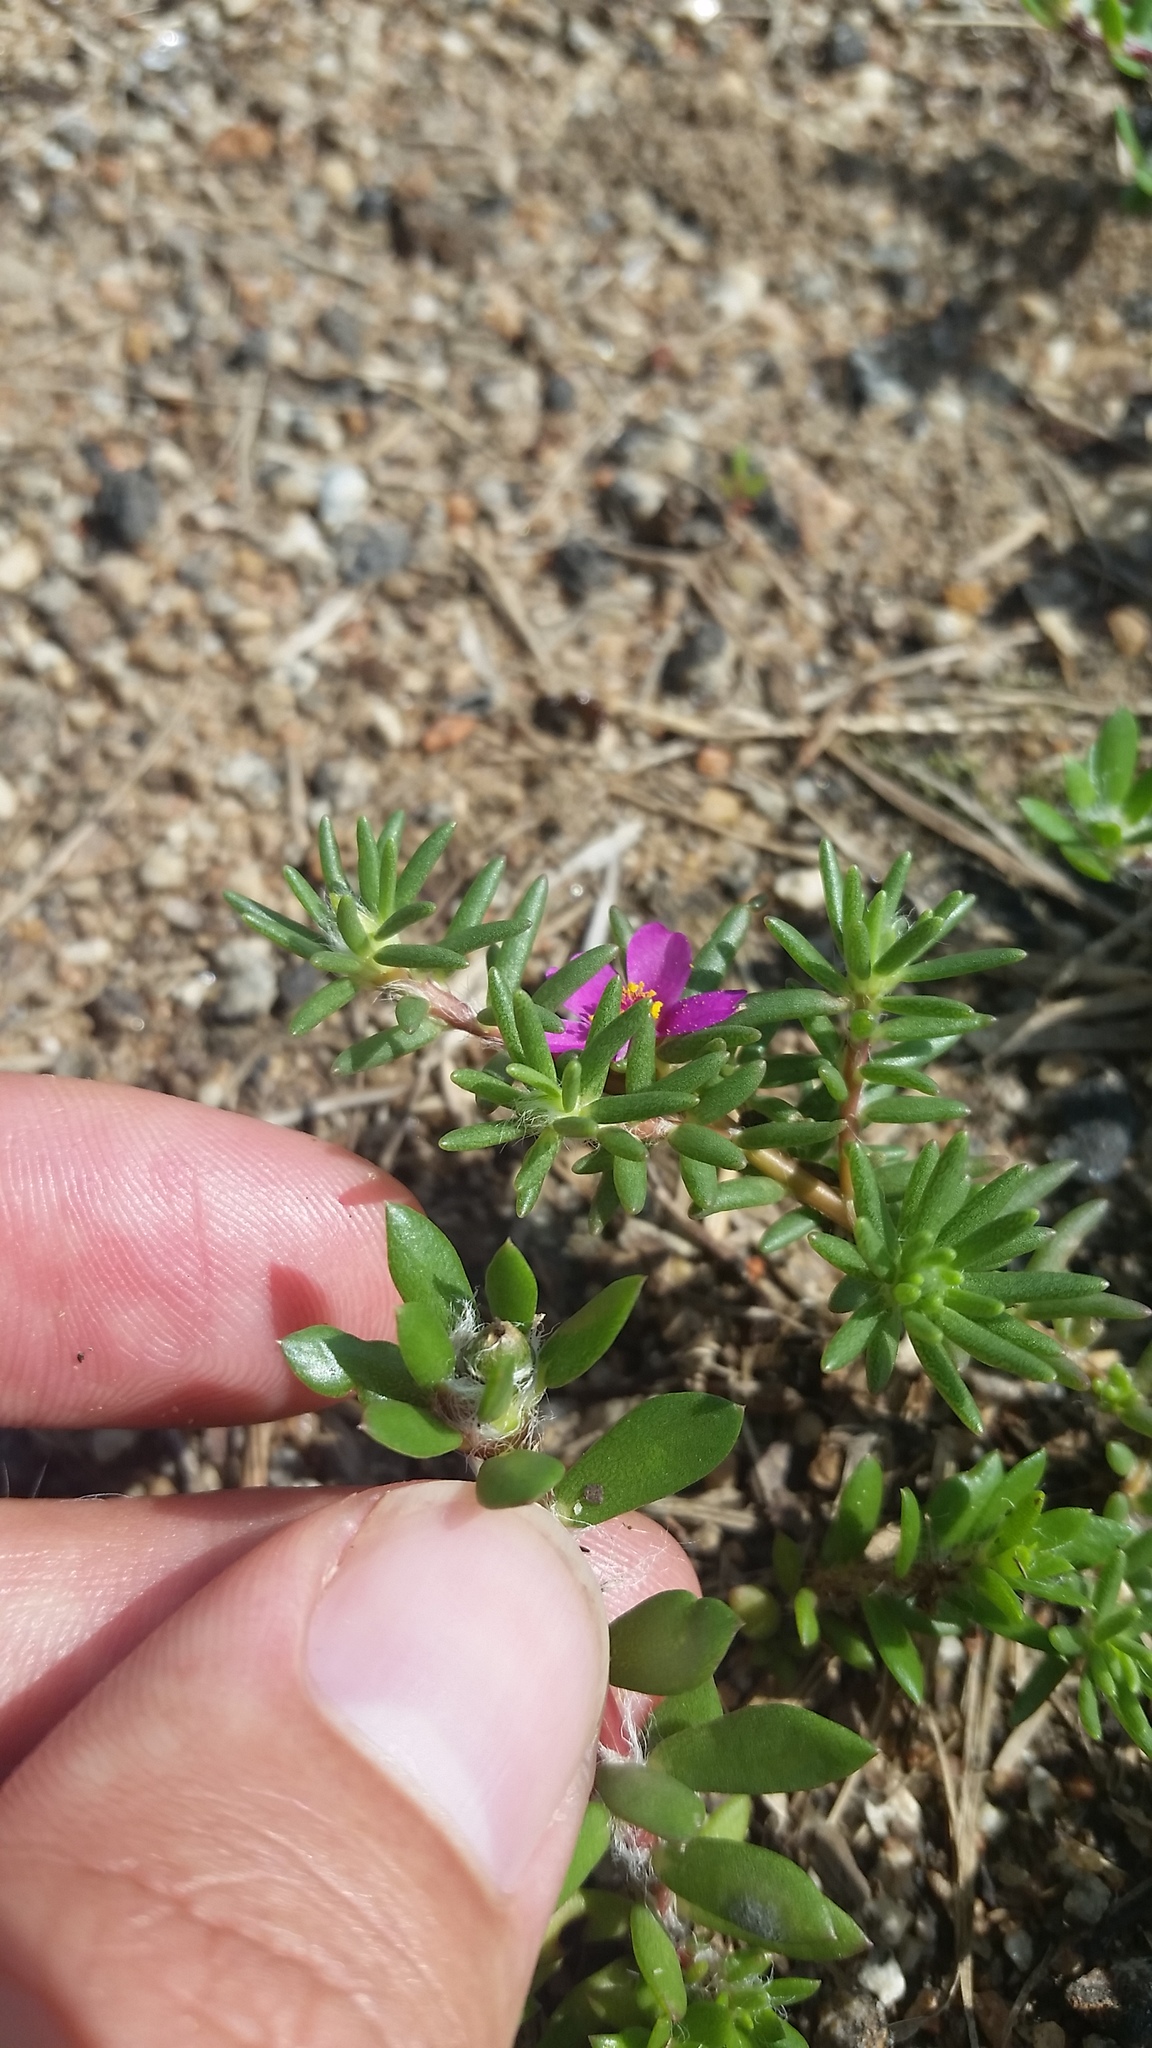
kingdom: Plantae
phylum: Tracheophyta
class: Magnoliopsida
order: Caryophyllales
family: Portulacaceae
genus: Portulaca
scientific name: Portulaca amilis
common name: Paraguayan purslane
